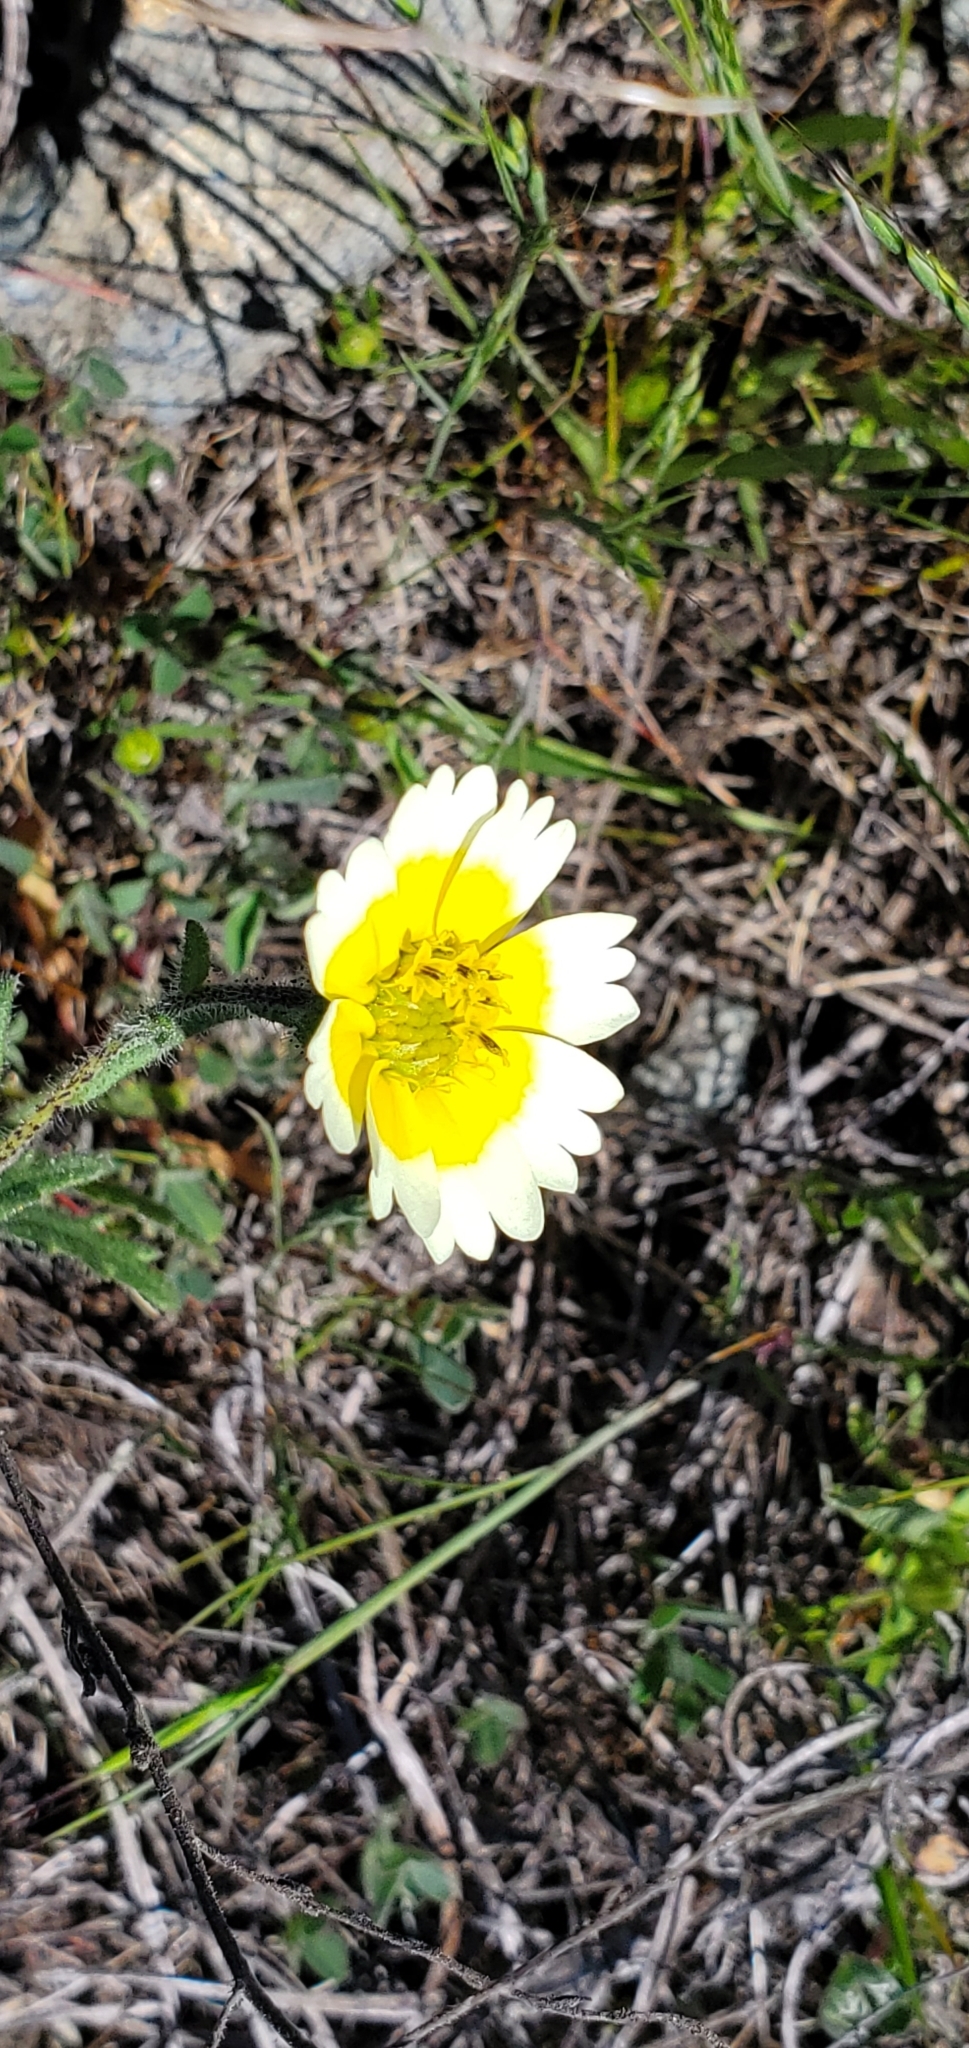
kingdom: Plantae
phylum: Tracheophyta
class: Magnoliopsida
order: Asterales
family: Asteraceae
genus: Layia
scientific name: Layia gaillardioides
